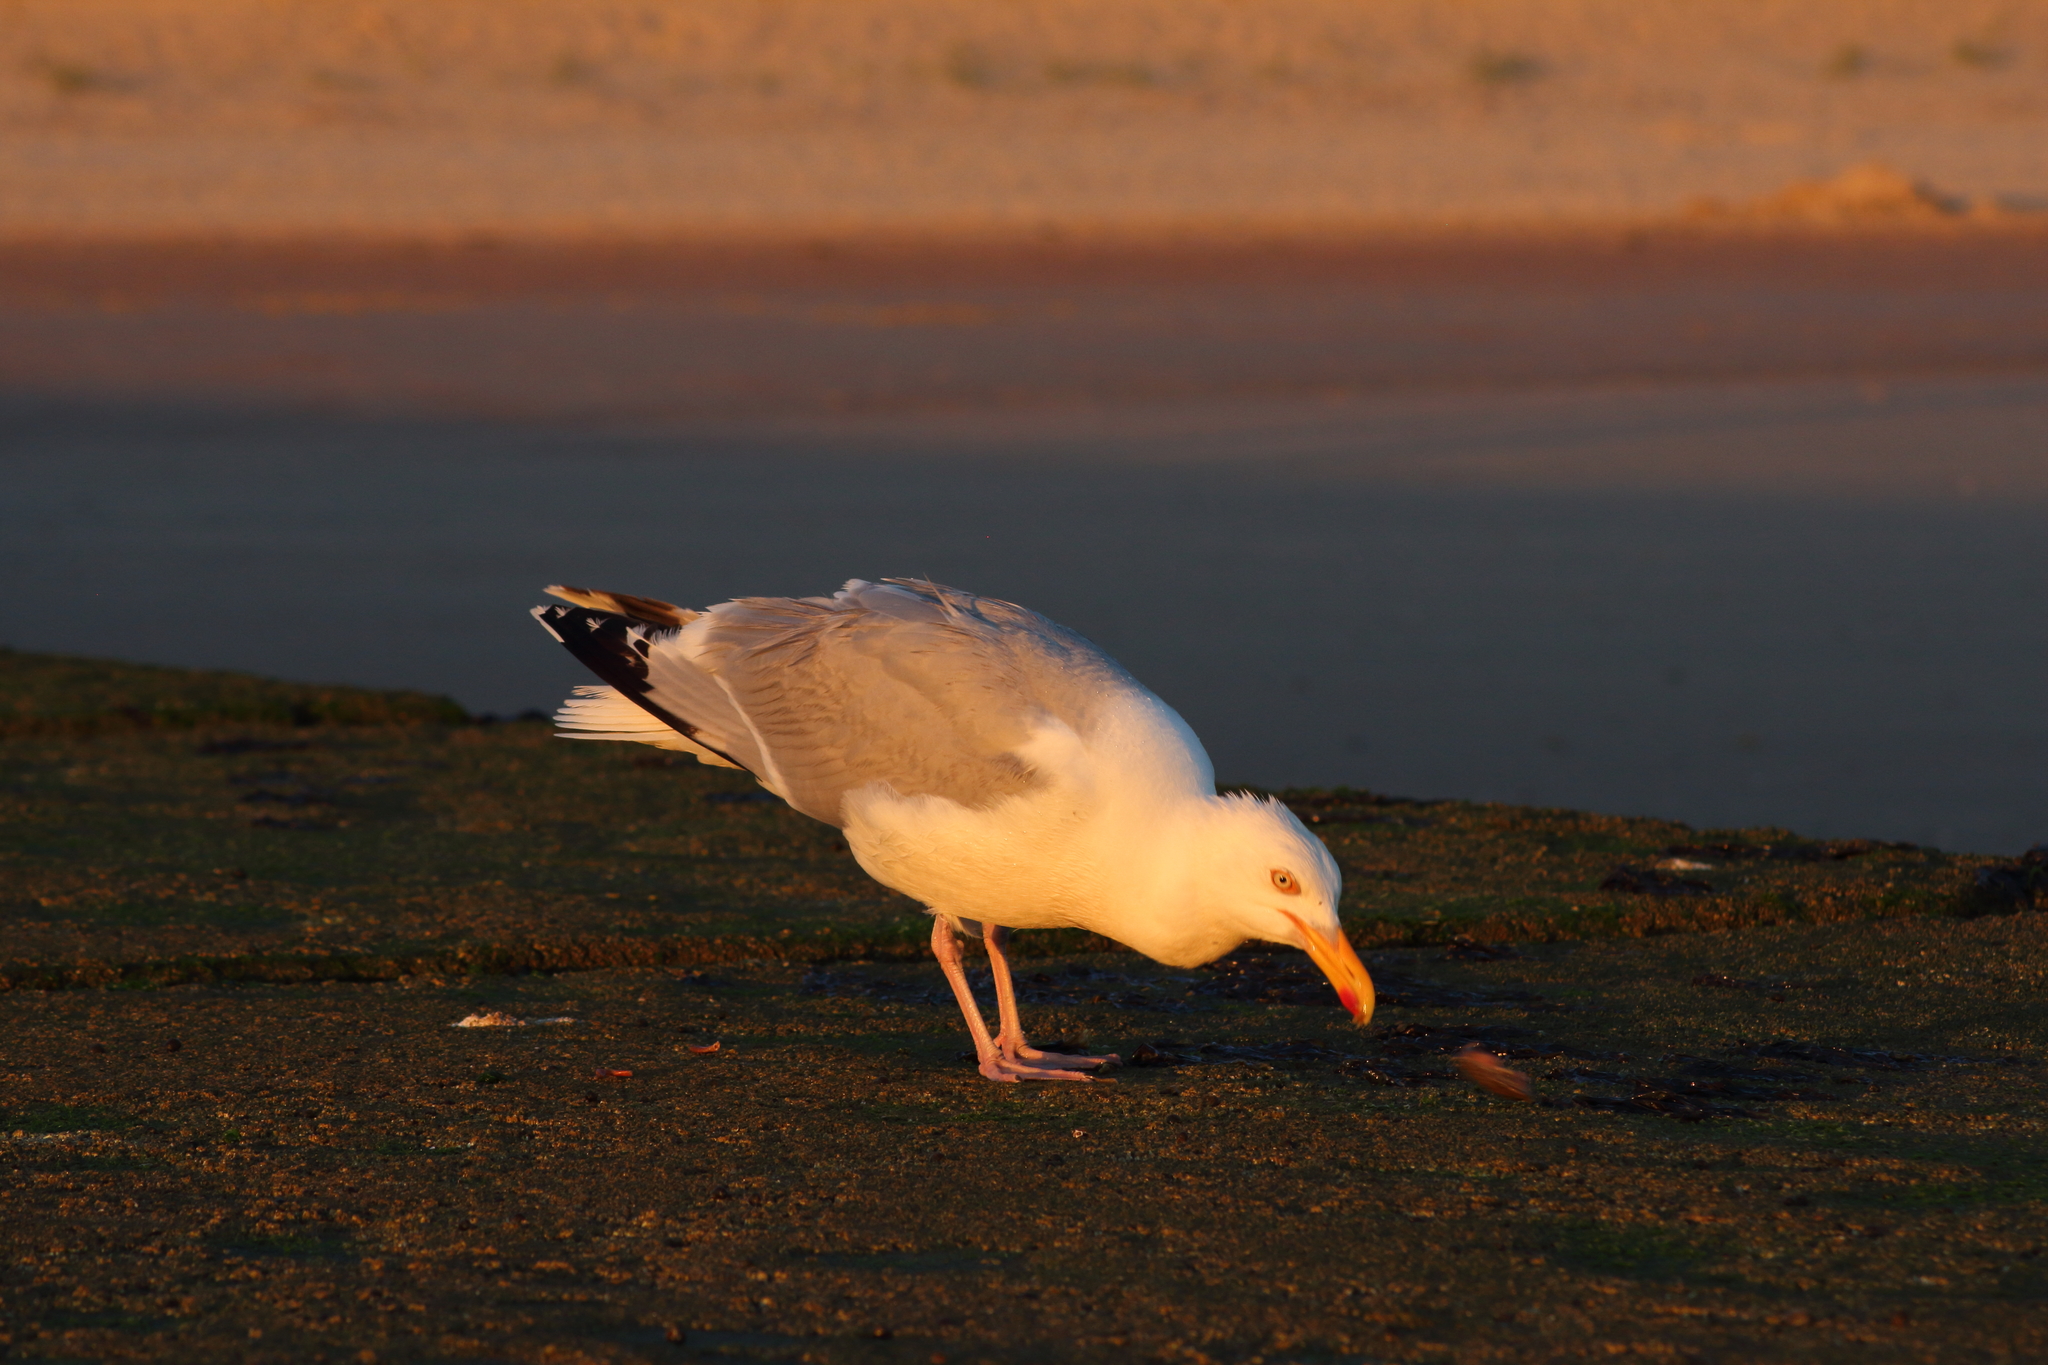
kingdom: Animalia
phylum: Chordata
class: Aves
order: Charadriiformes
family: Laridae
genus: Larus
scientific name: Larus argentatus
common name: Herring gull
